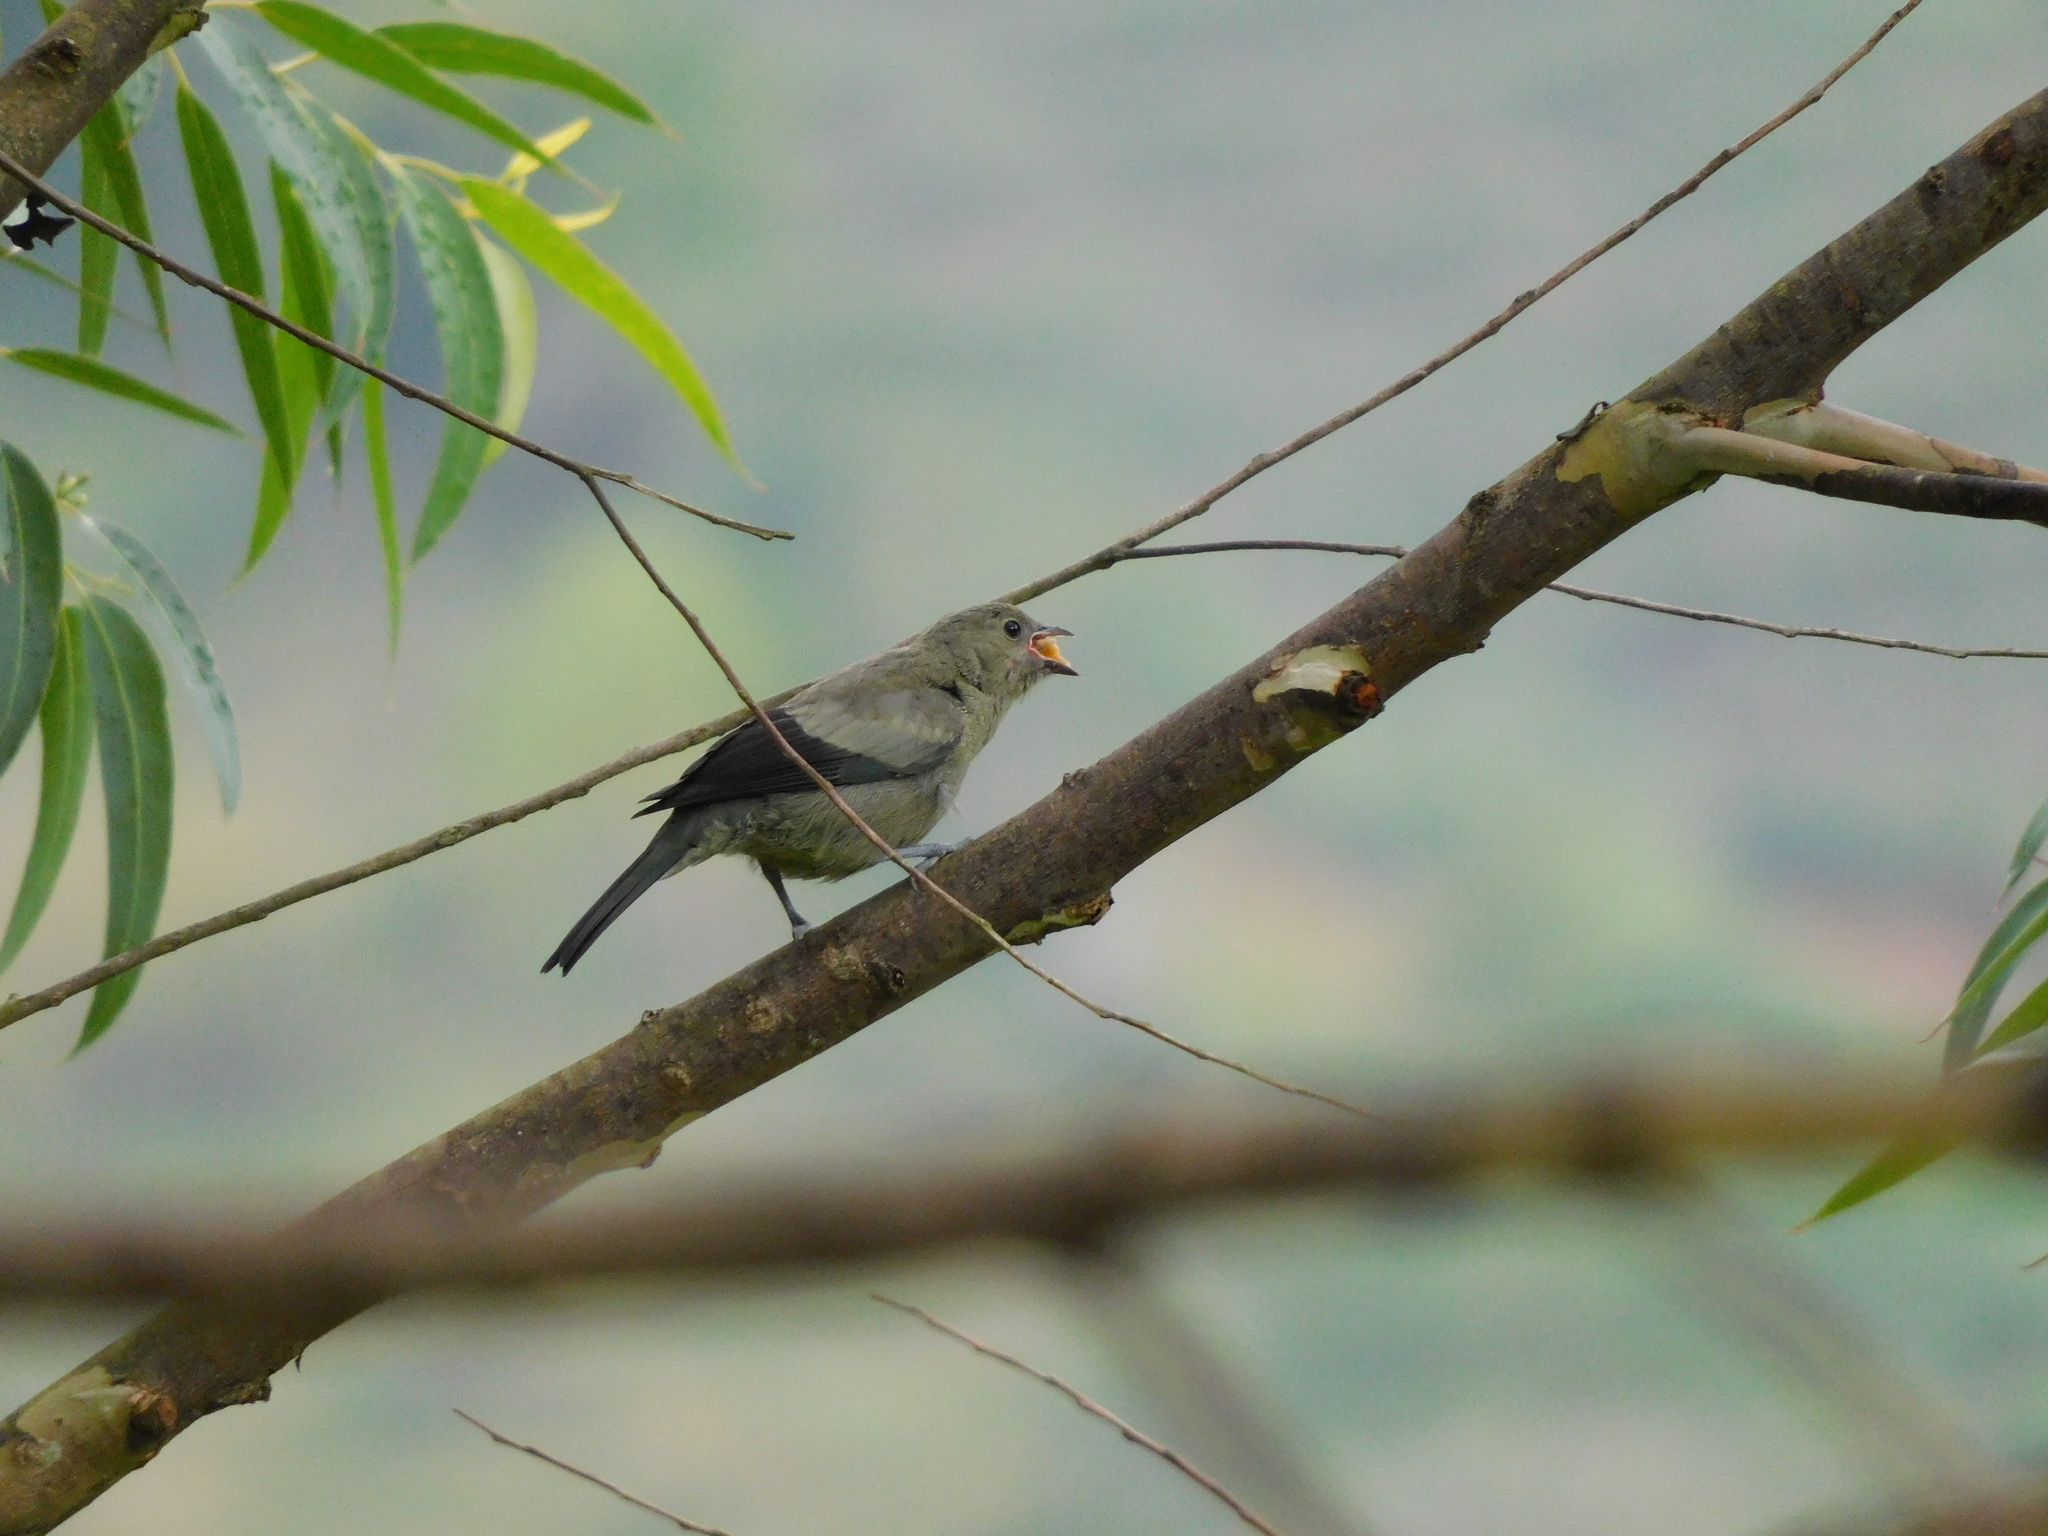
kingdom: Animalia
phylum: Chordata
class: Aves
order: Passeriformes
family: Thraupidae
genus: Thraupis
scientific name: Thraupis palmarum
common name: Palm tanager
